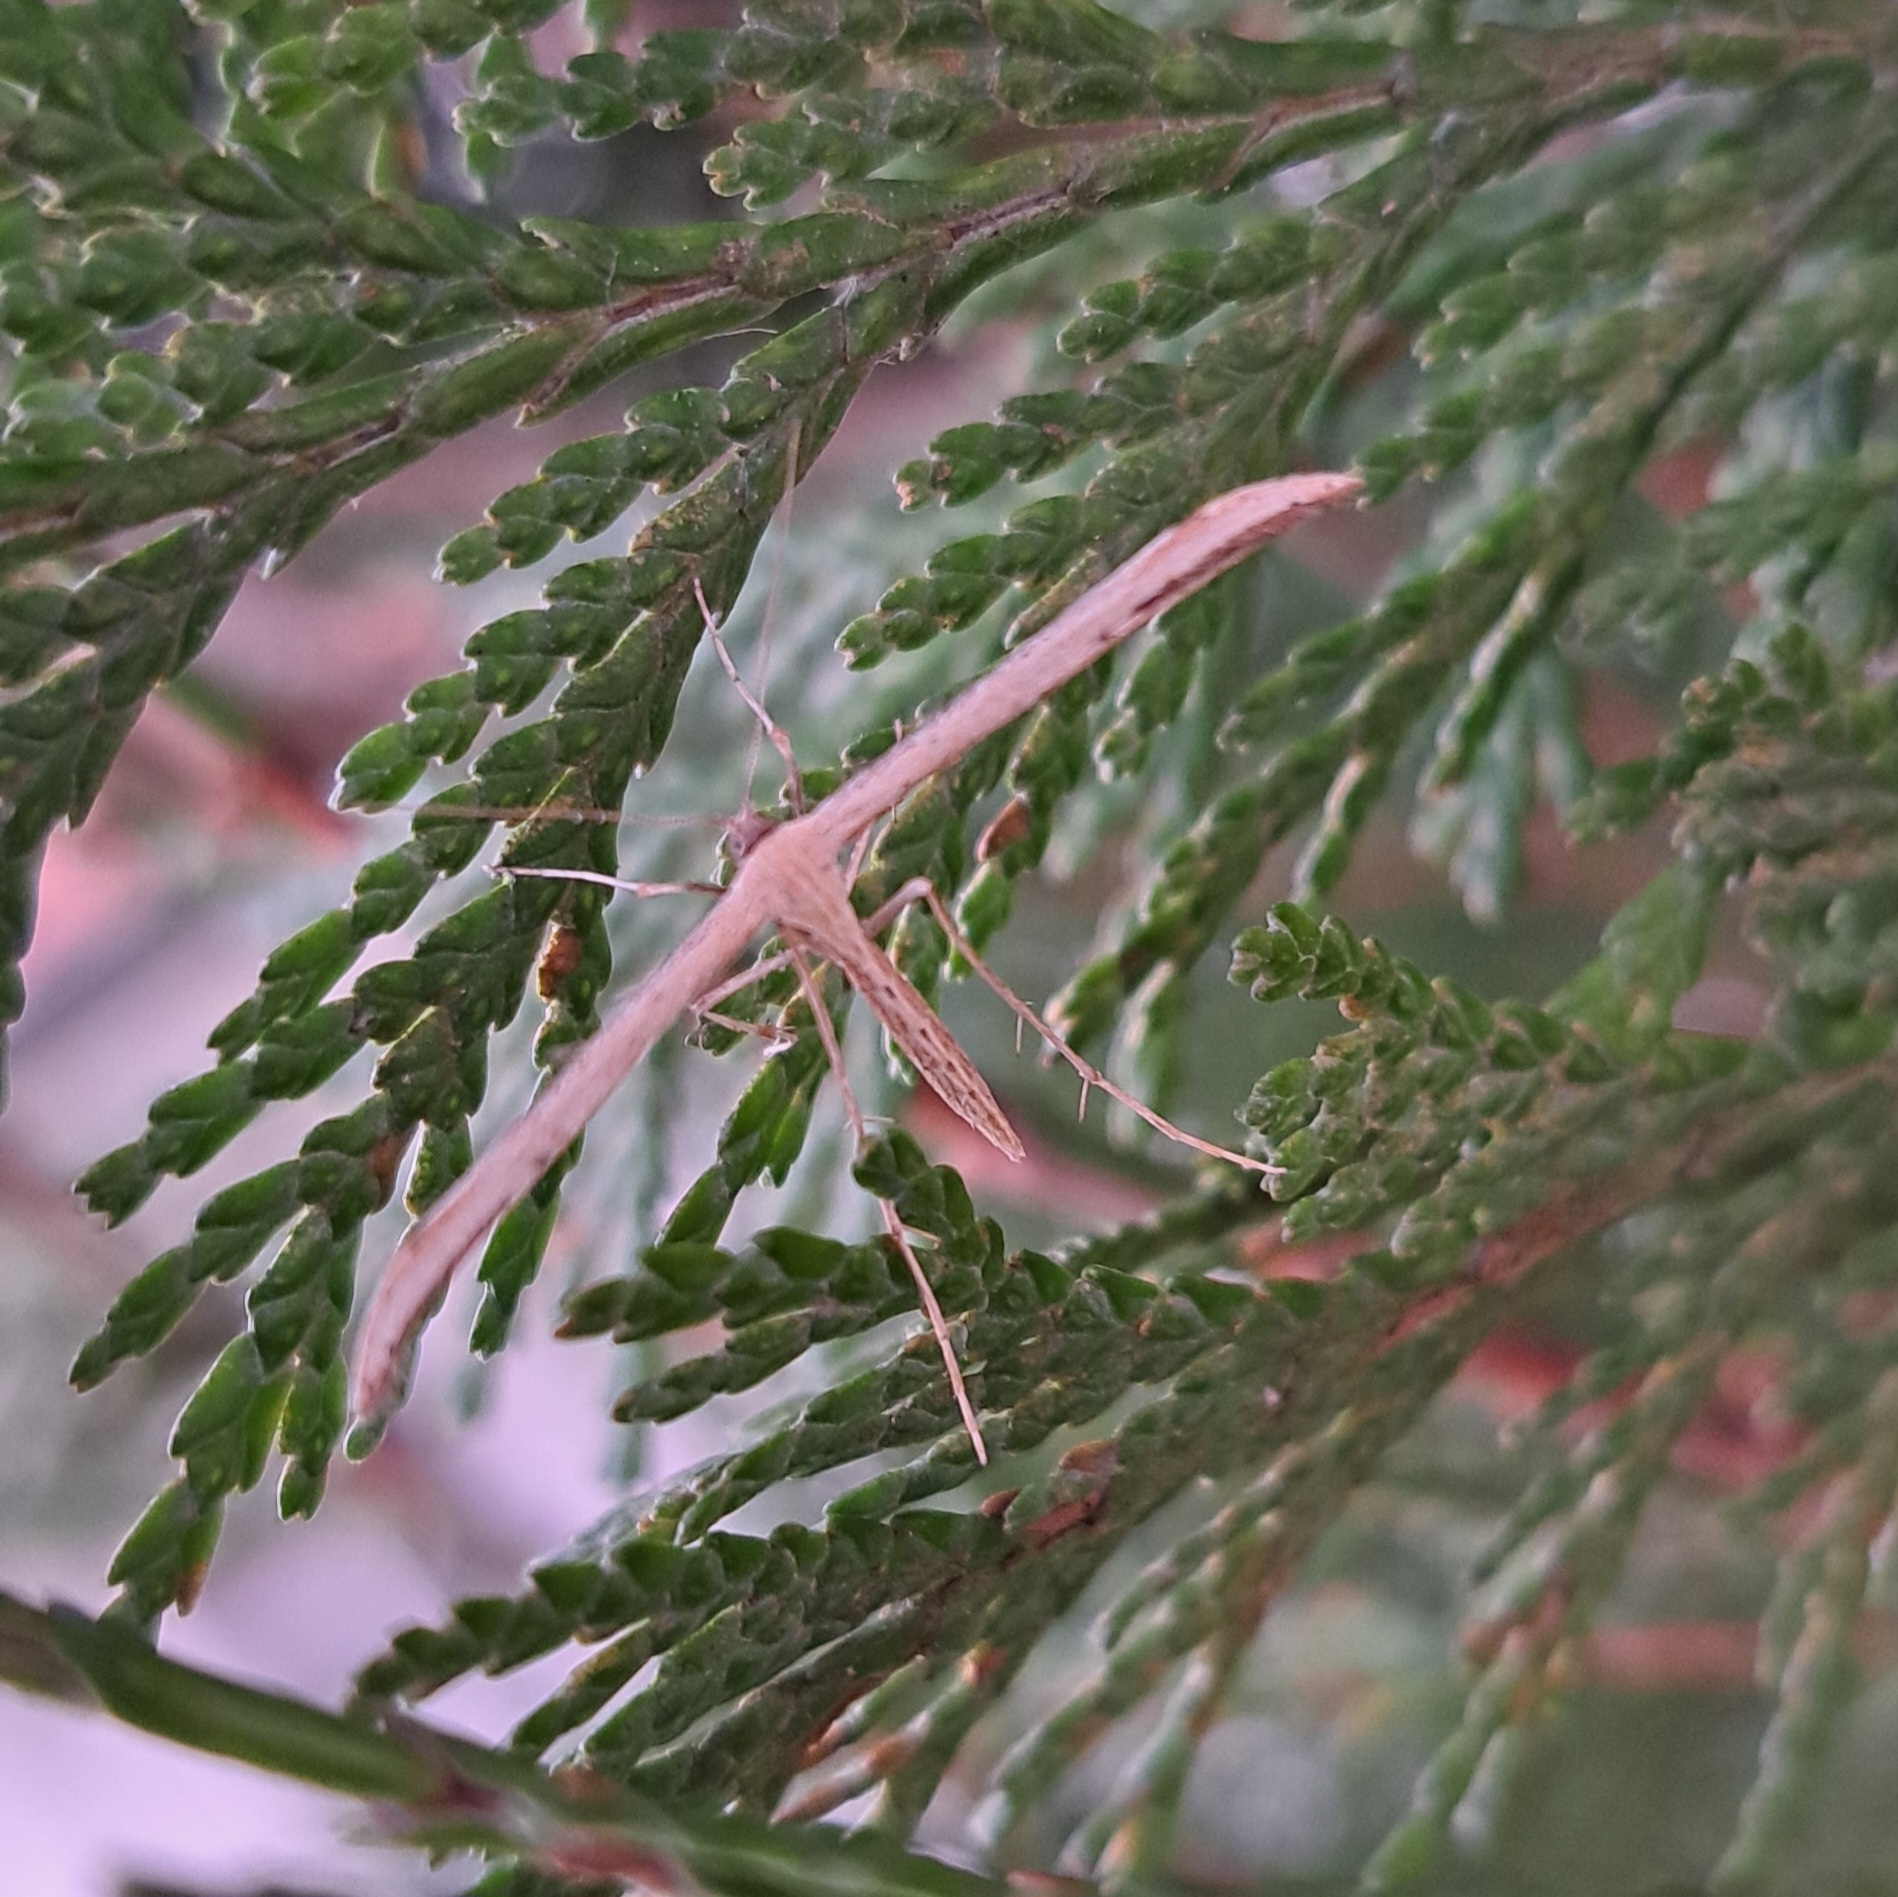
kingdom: Animalia
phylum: Arthropoda
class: Insecta
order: Lepidoptera
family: Pterophoridae
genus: Emmelina
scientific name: Emmelina monodactyla
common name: Common plume
